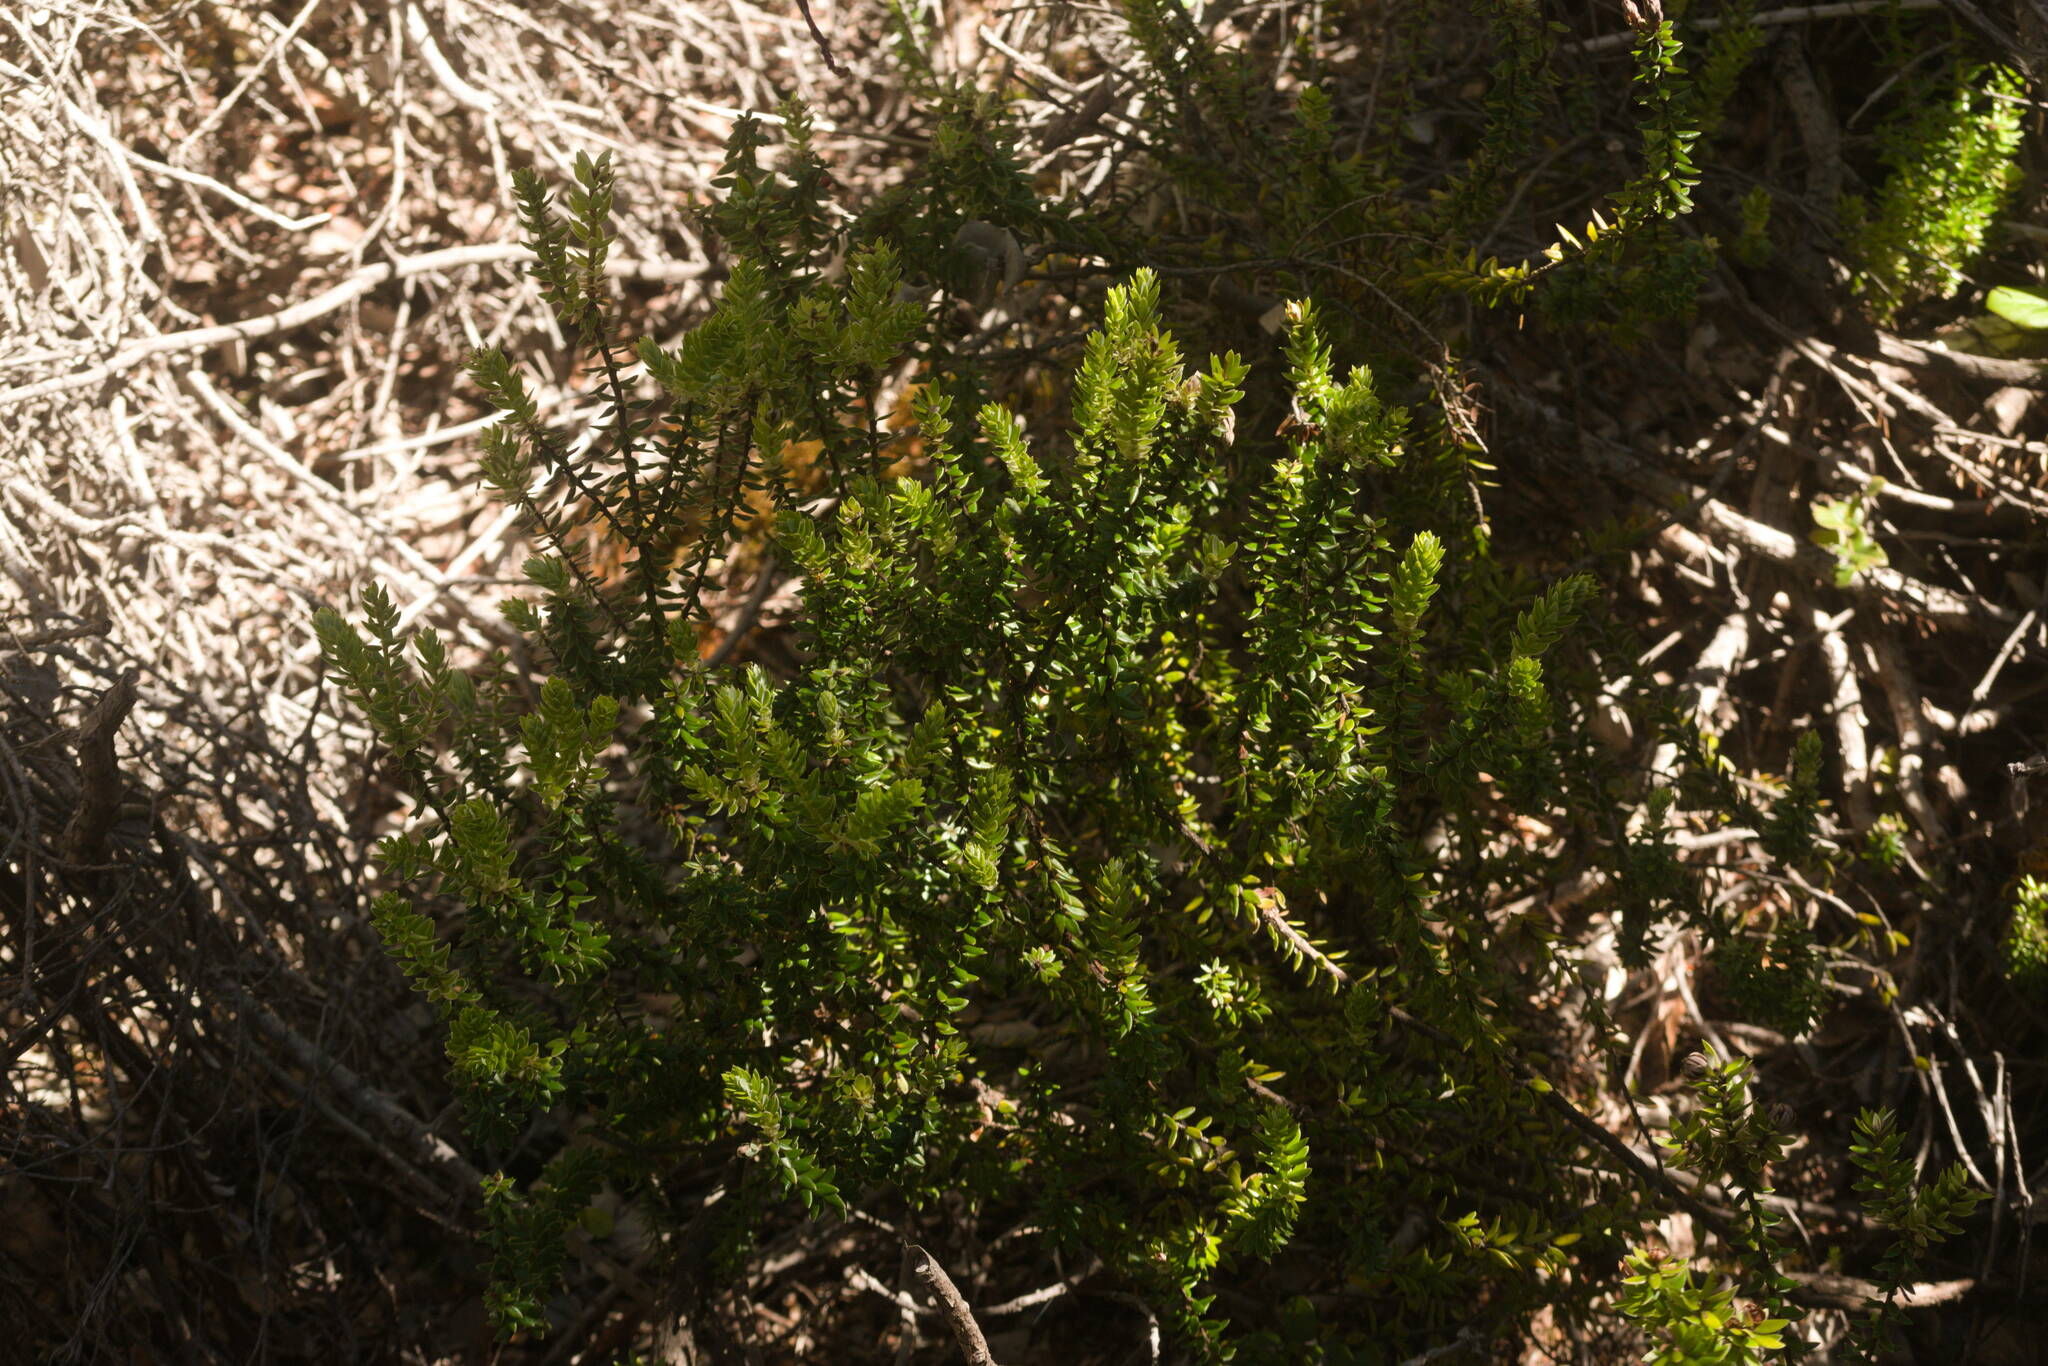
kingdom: Plantae
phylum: Tracheophyta
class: Magnoliopsida
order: Ericales
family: Ericaceae
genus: Leptecophylla
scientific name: Leptecophylla tameiameiae
